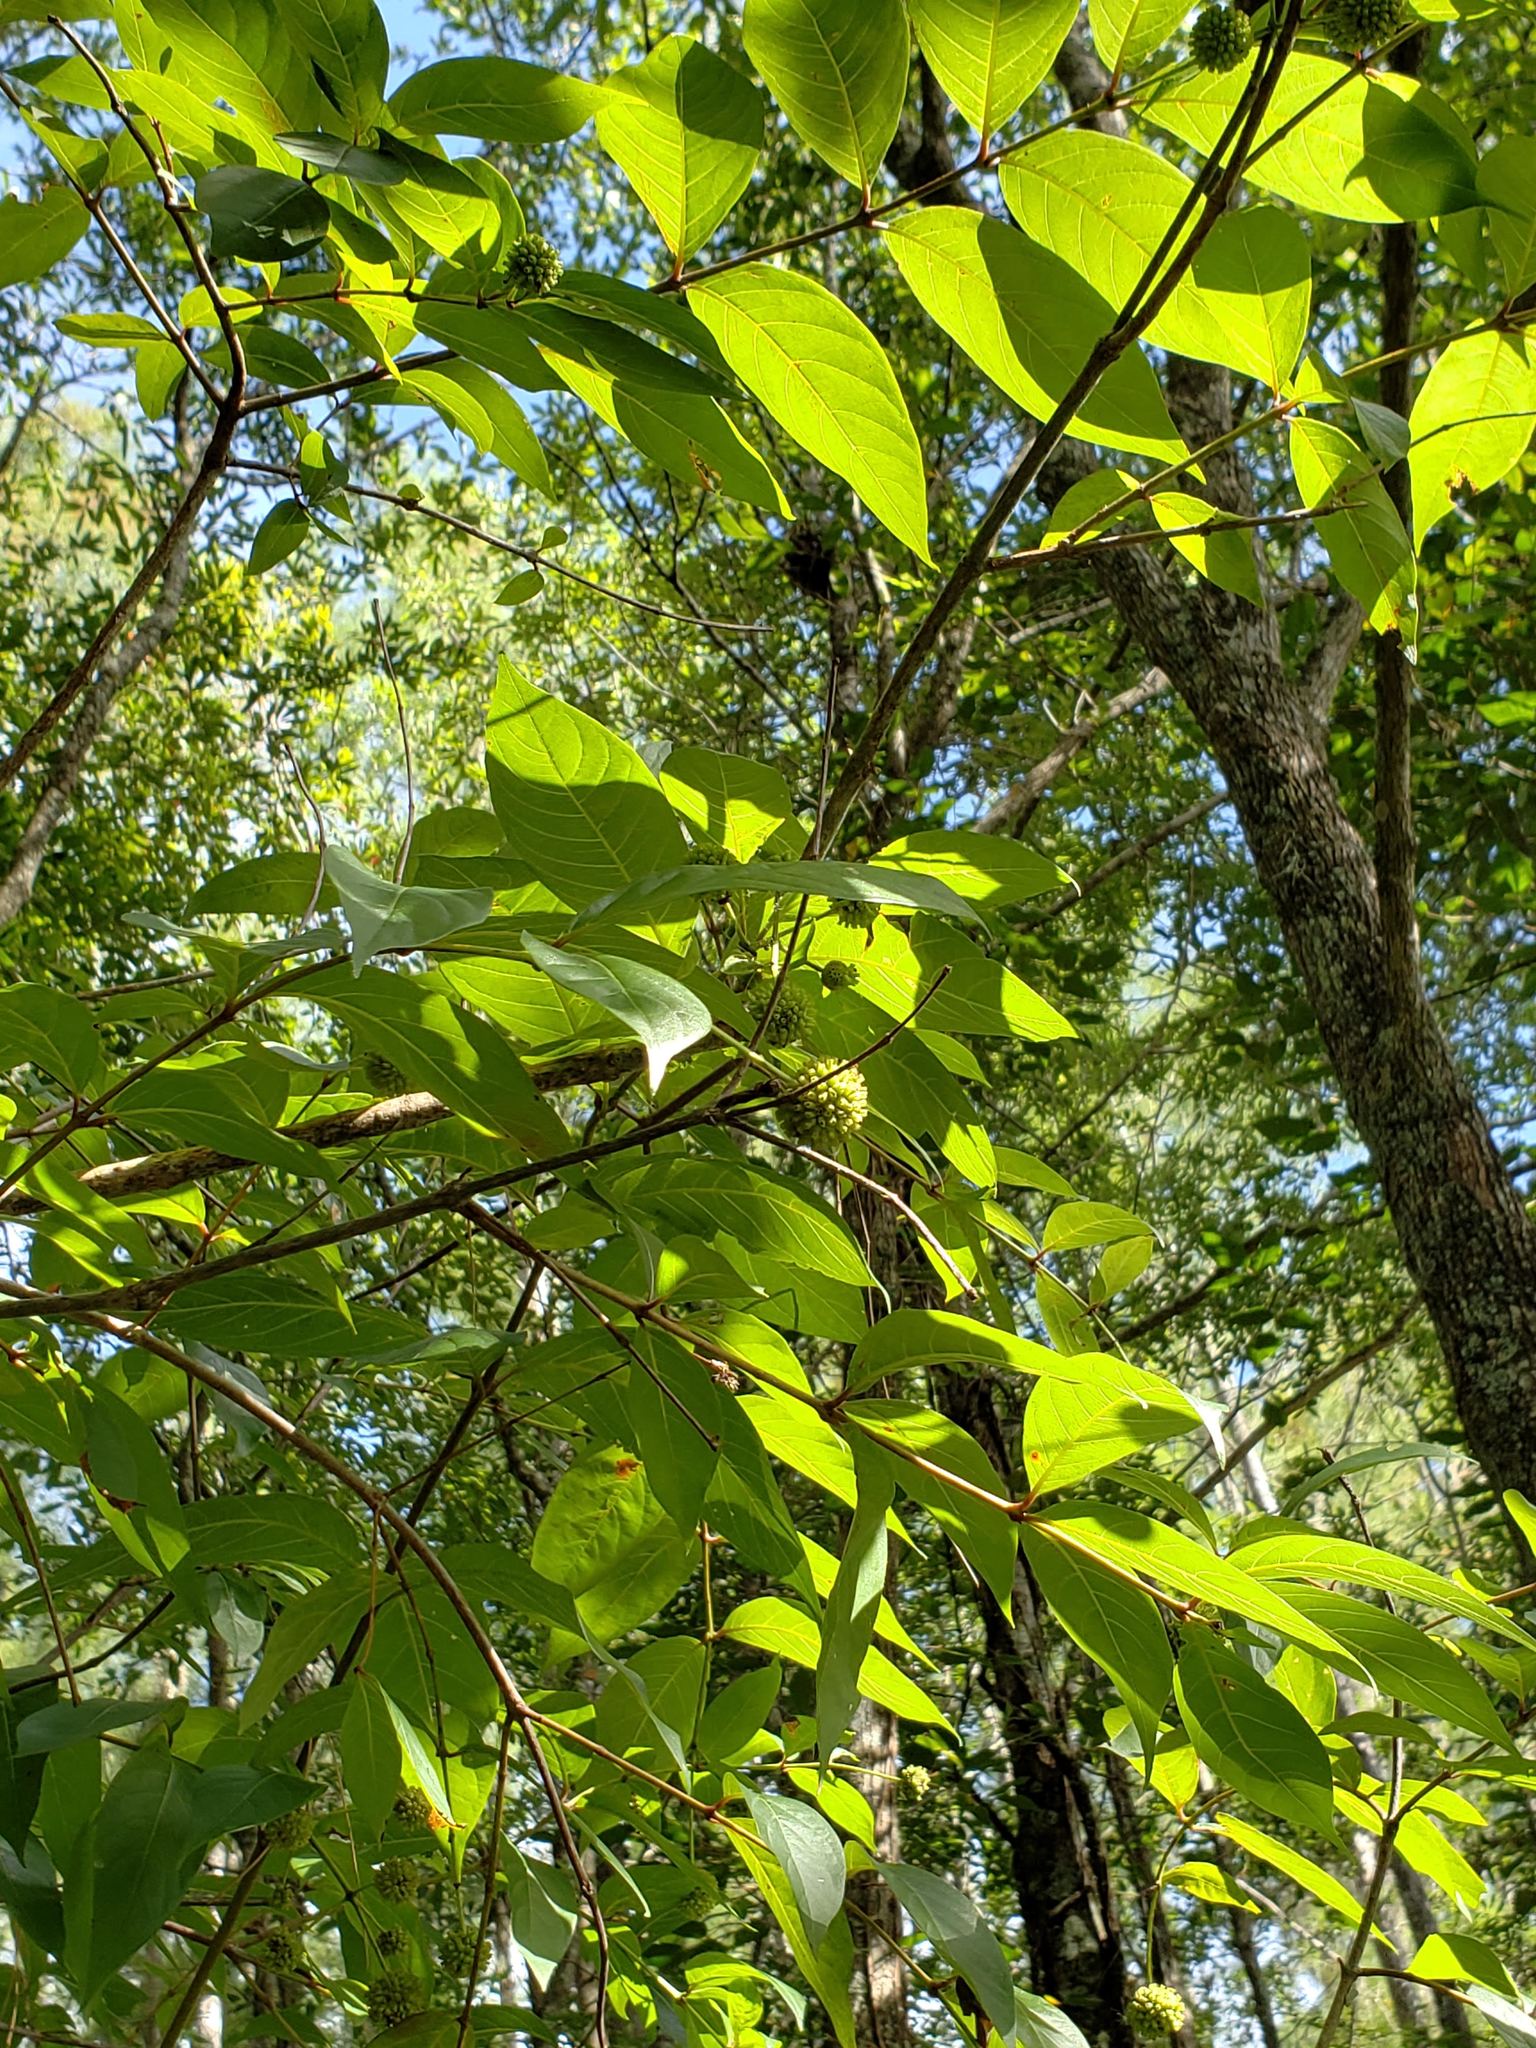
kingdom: Plantae
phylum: Tracheophyta
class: Magnoliopsida
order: Gentianales
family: Rubiaceae
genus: Cephalanthus
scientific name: Cephalanthus occidentalis
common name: Button-willow
